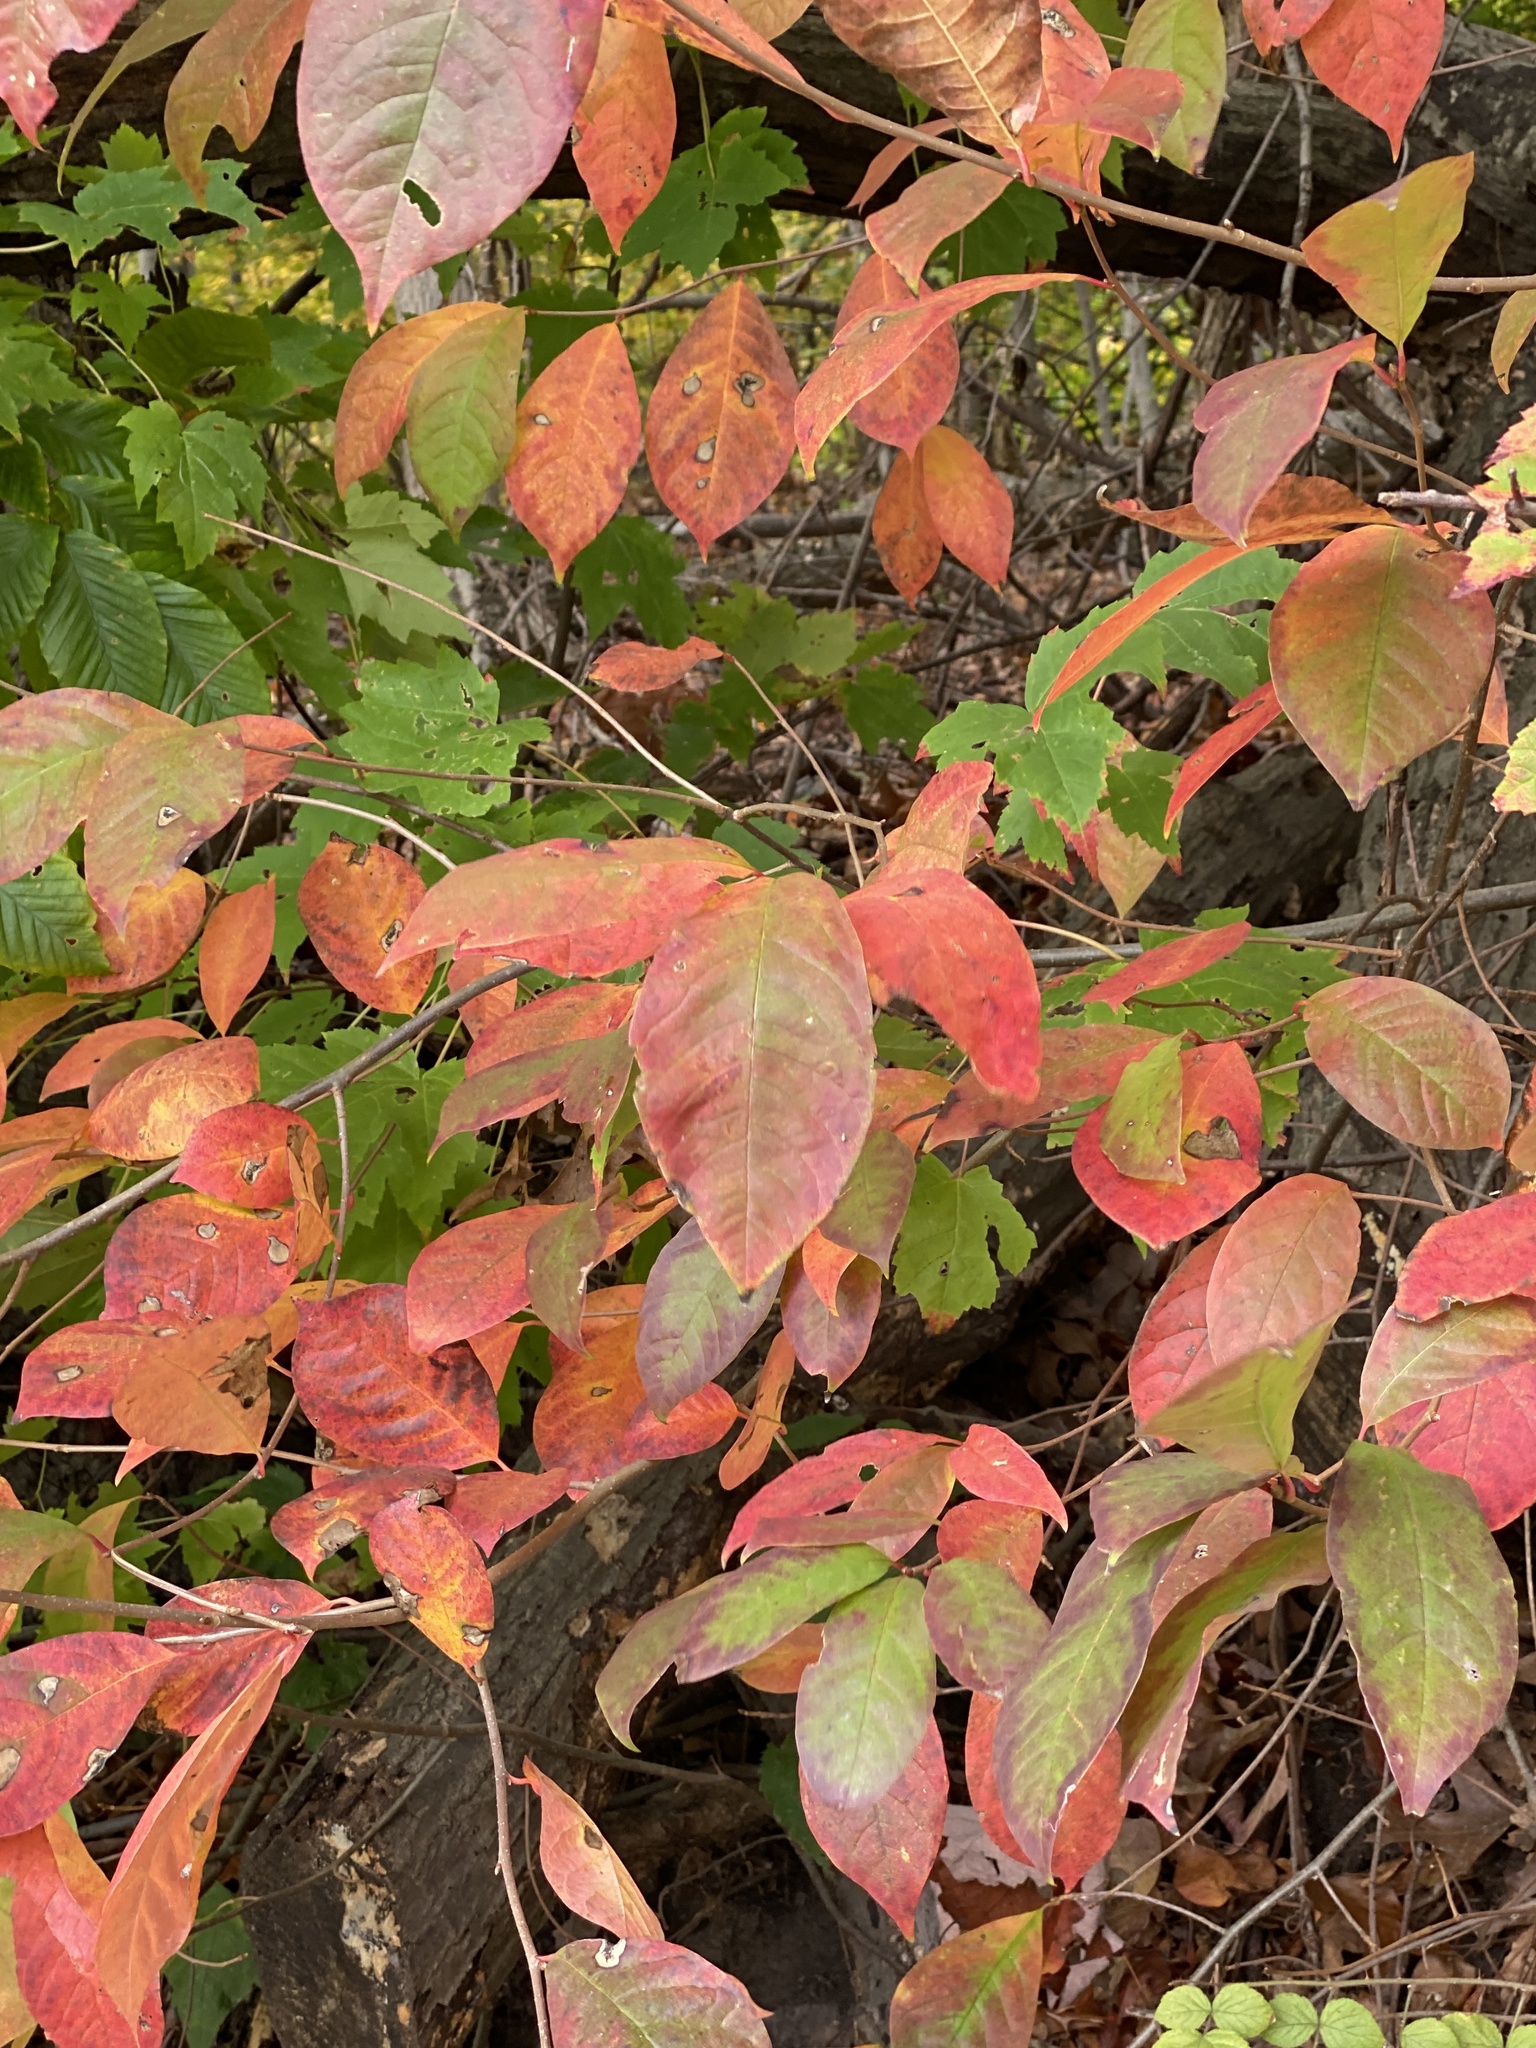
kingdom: Plantae
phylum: Tracheophyta
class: Magnoliopsida
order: Cornales
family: Nyssaceae
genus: Nyssa
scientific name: Nyssa sylvatica
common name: Black tupelo
